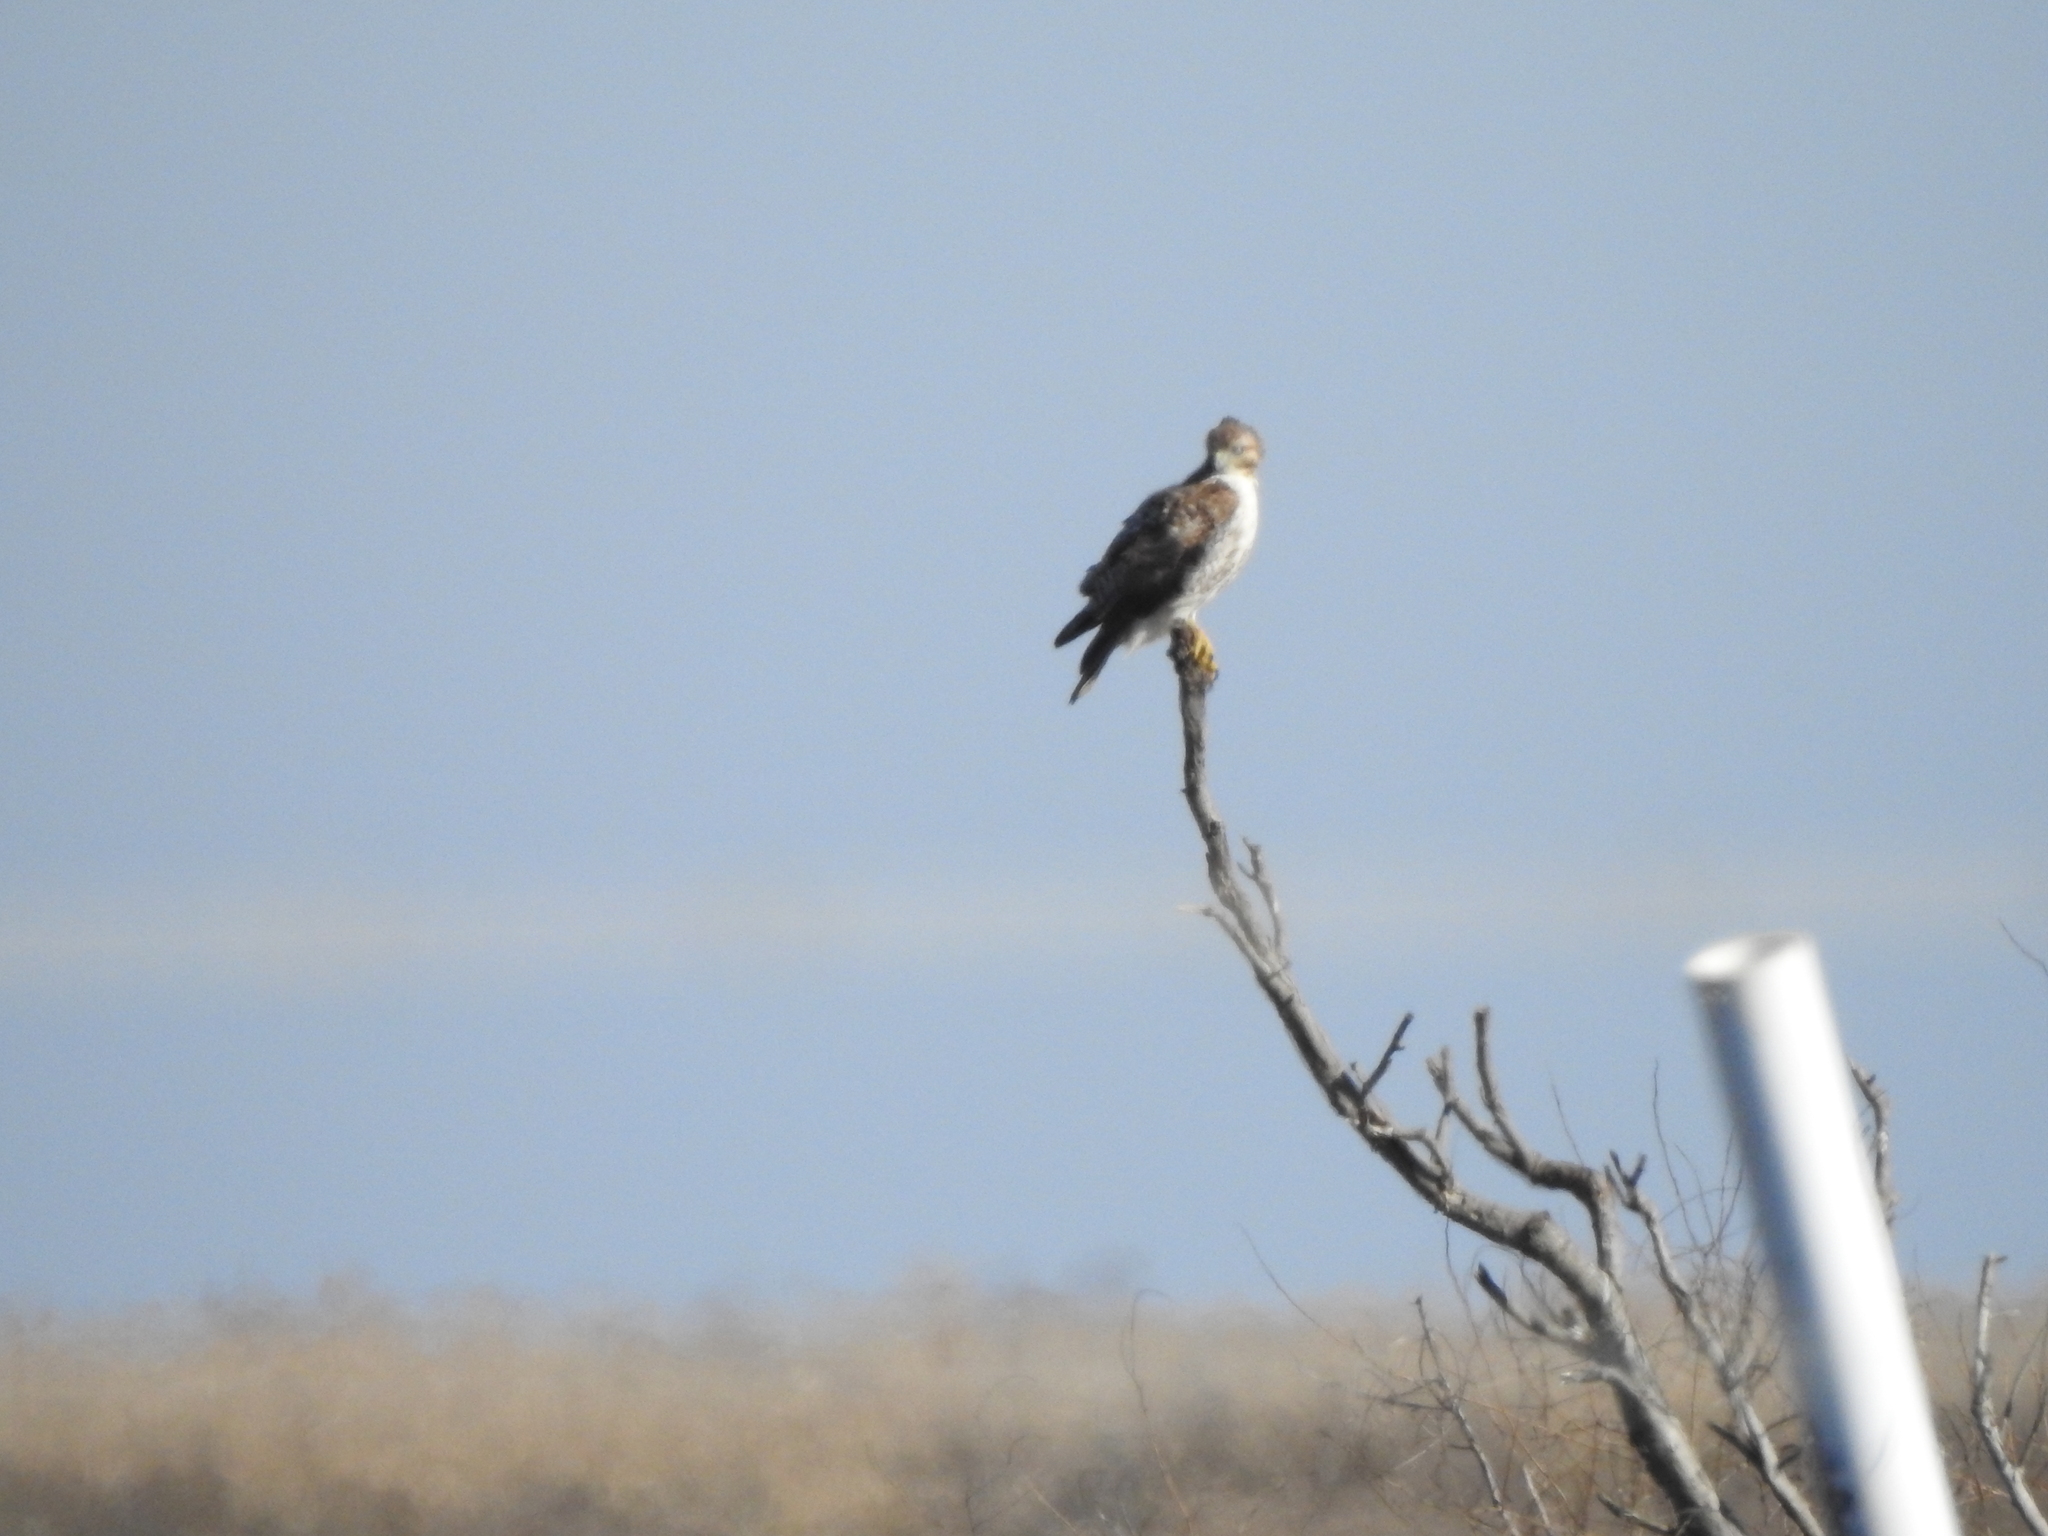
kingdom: Animalia
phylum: Chordata
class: Aves
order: Accipitriformes
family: Accipitridae
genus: Buteo
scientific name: Buteo jamaicensis
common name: Red-tailed hawk
